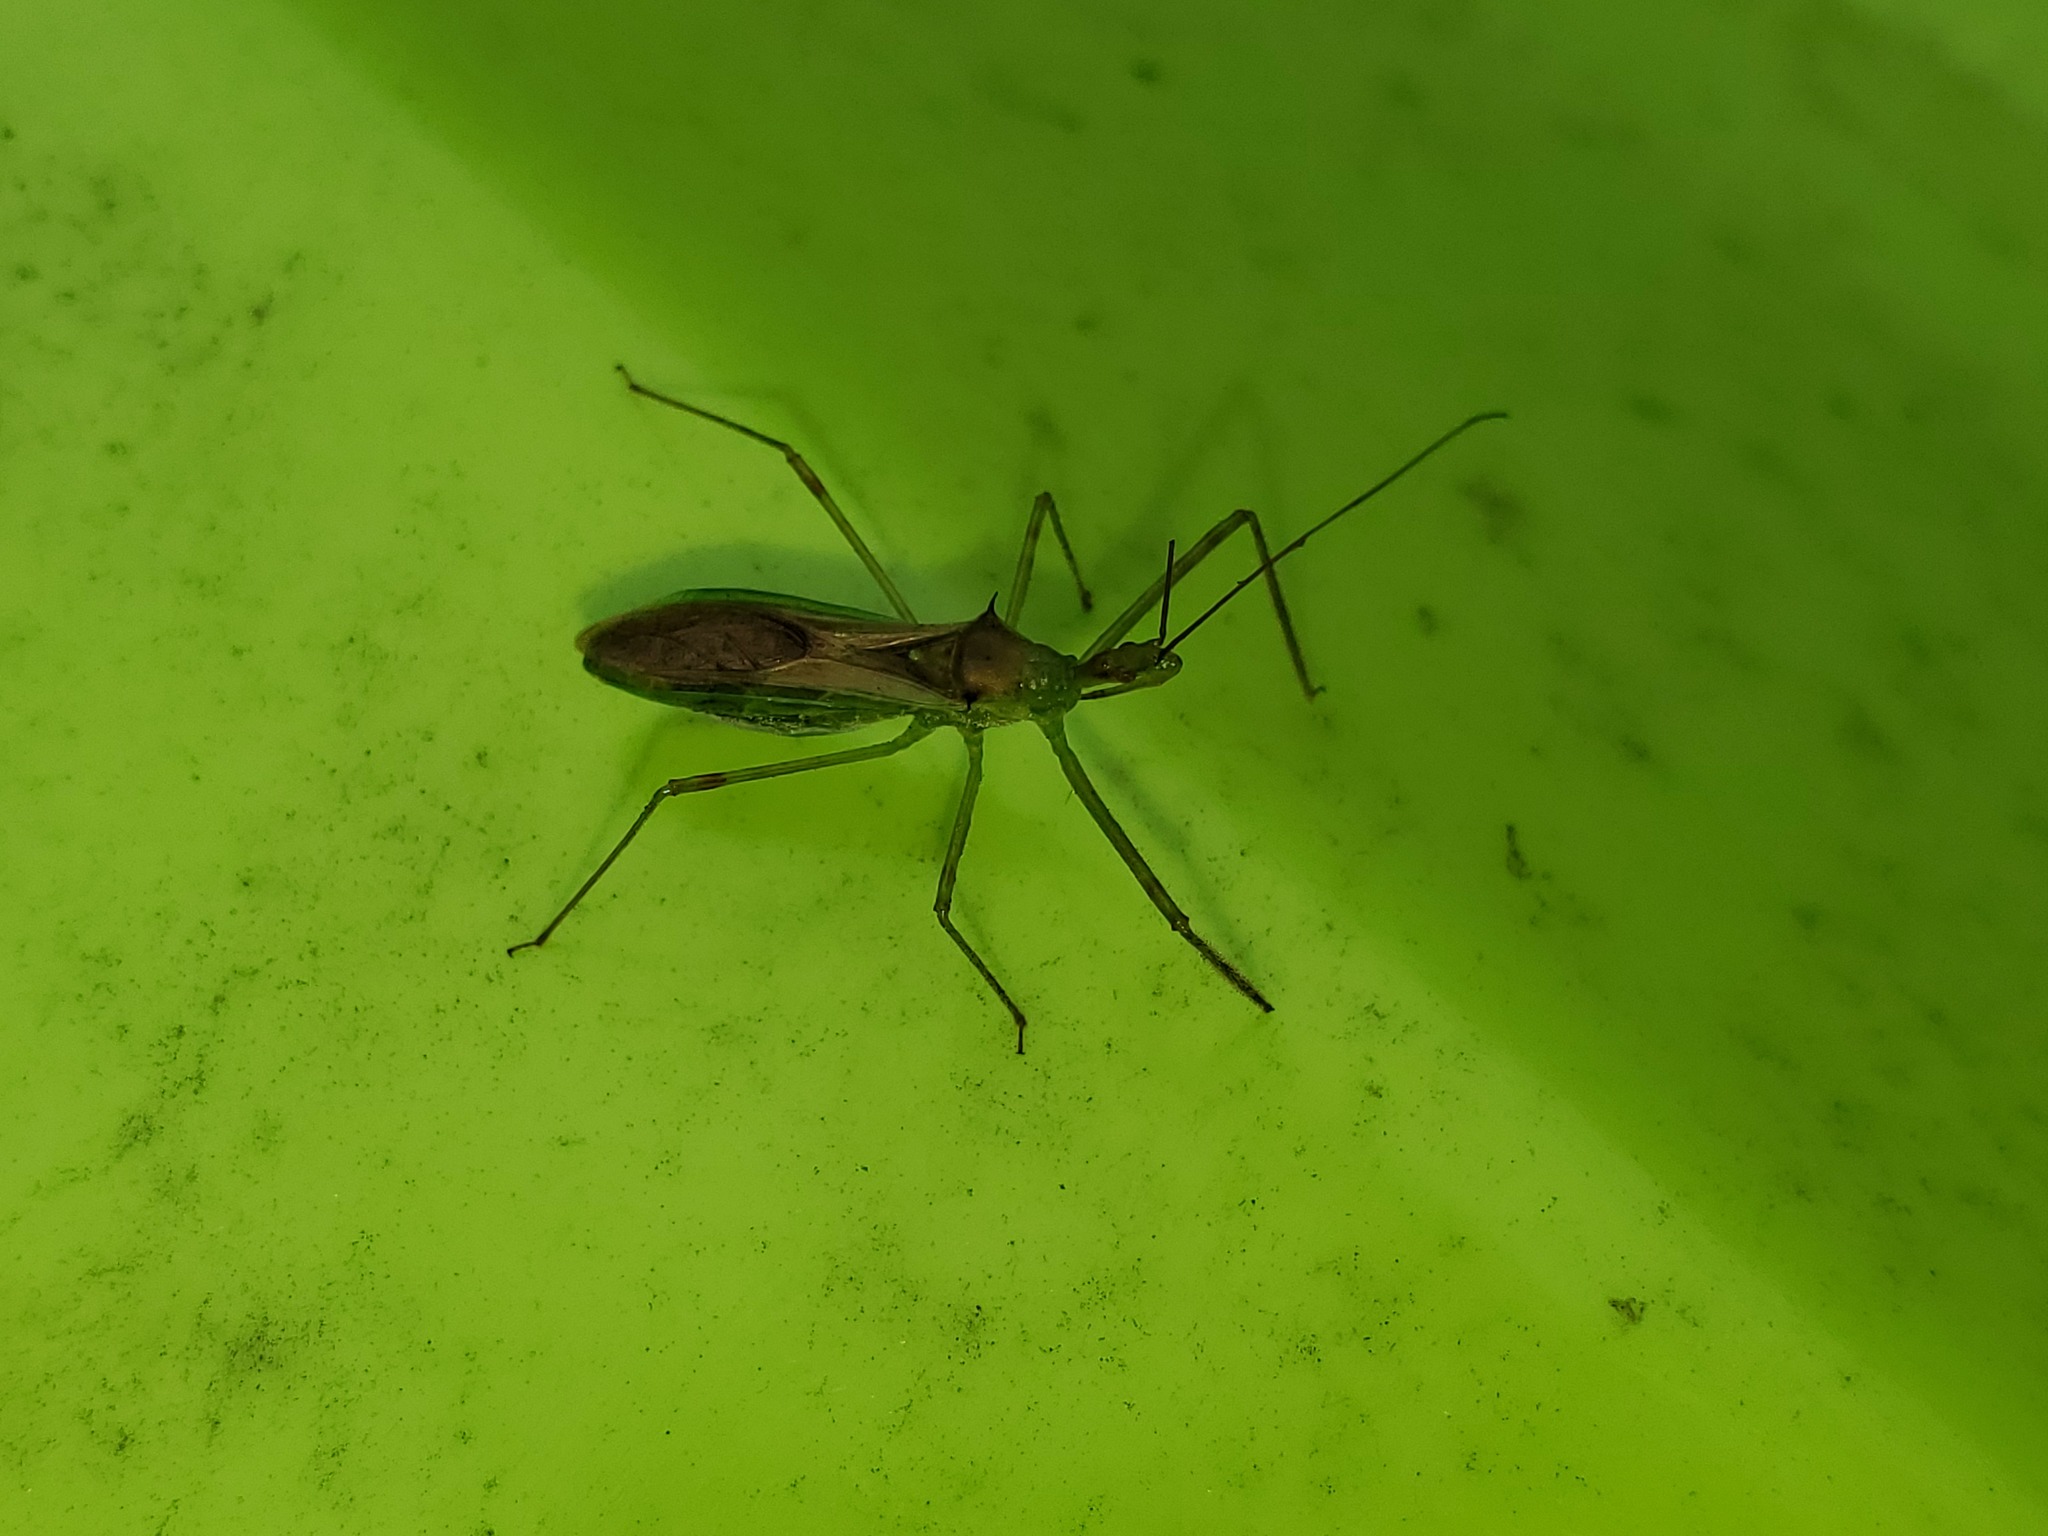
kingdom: Animalia
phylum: Arthropoda
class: Insecta
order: Hemiptera
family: Reduviidae
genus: Zelus
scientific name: Zelus luridus
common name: Pale green assassin bug
